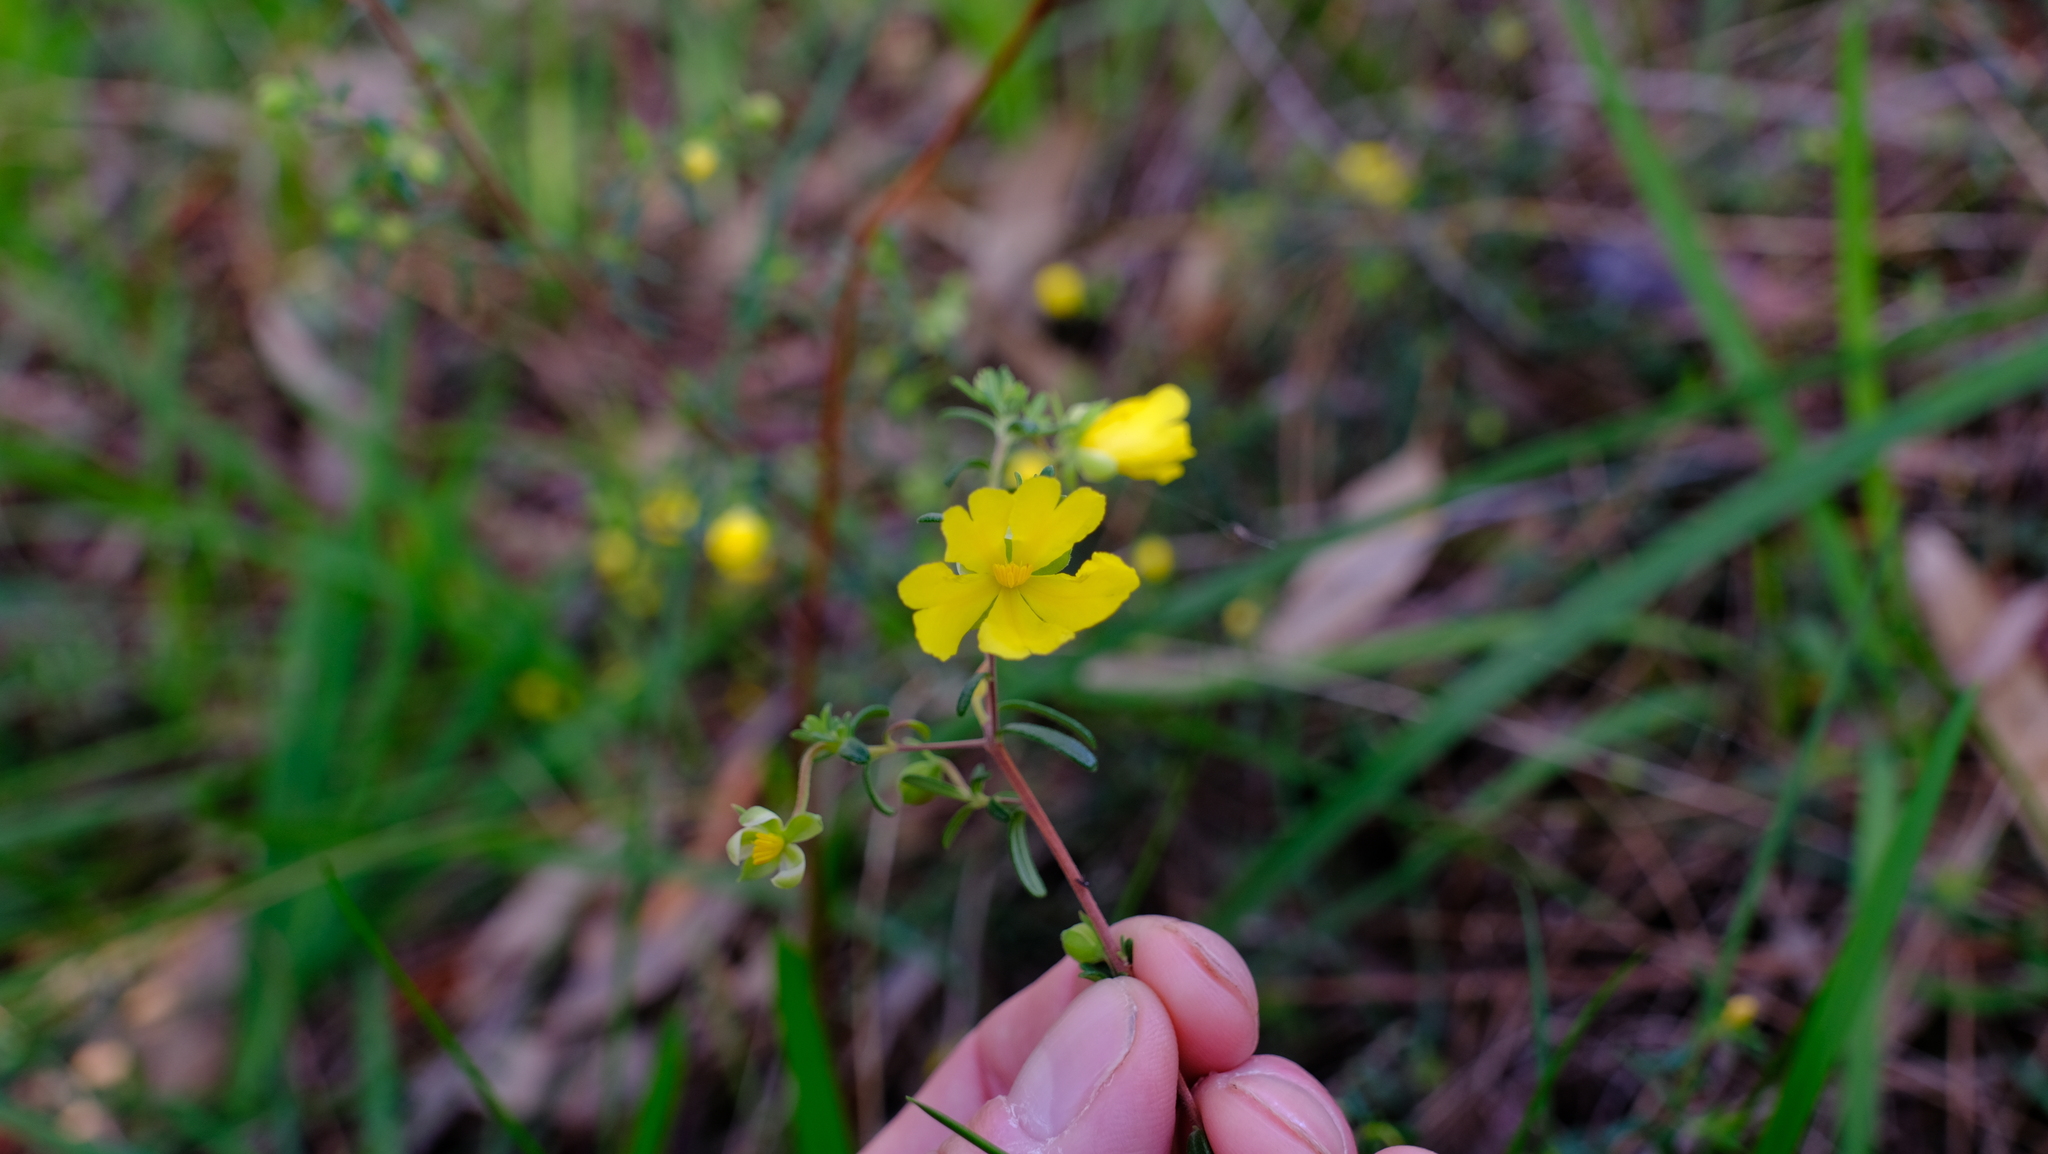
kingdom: Plantae
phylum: Tracheophyta
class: Magnoliopsida
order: Dilleniales
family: Dilleniaceae
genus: Hibbertia
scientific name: Hibbertia hypericoides
